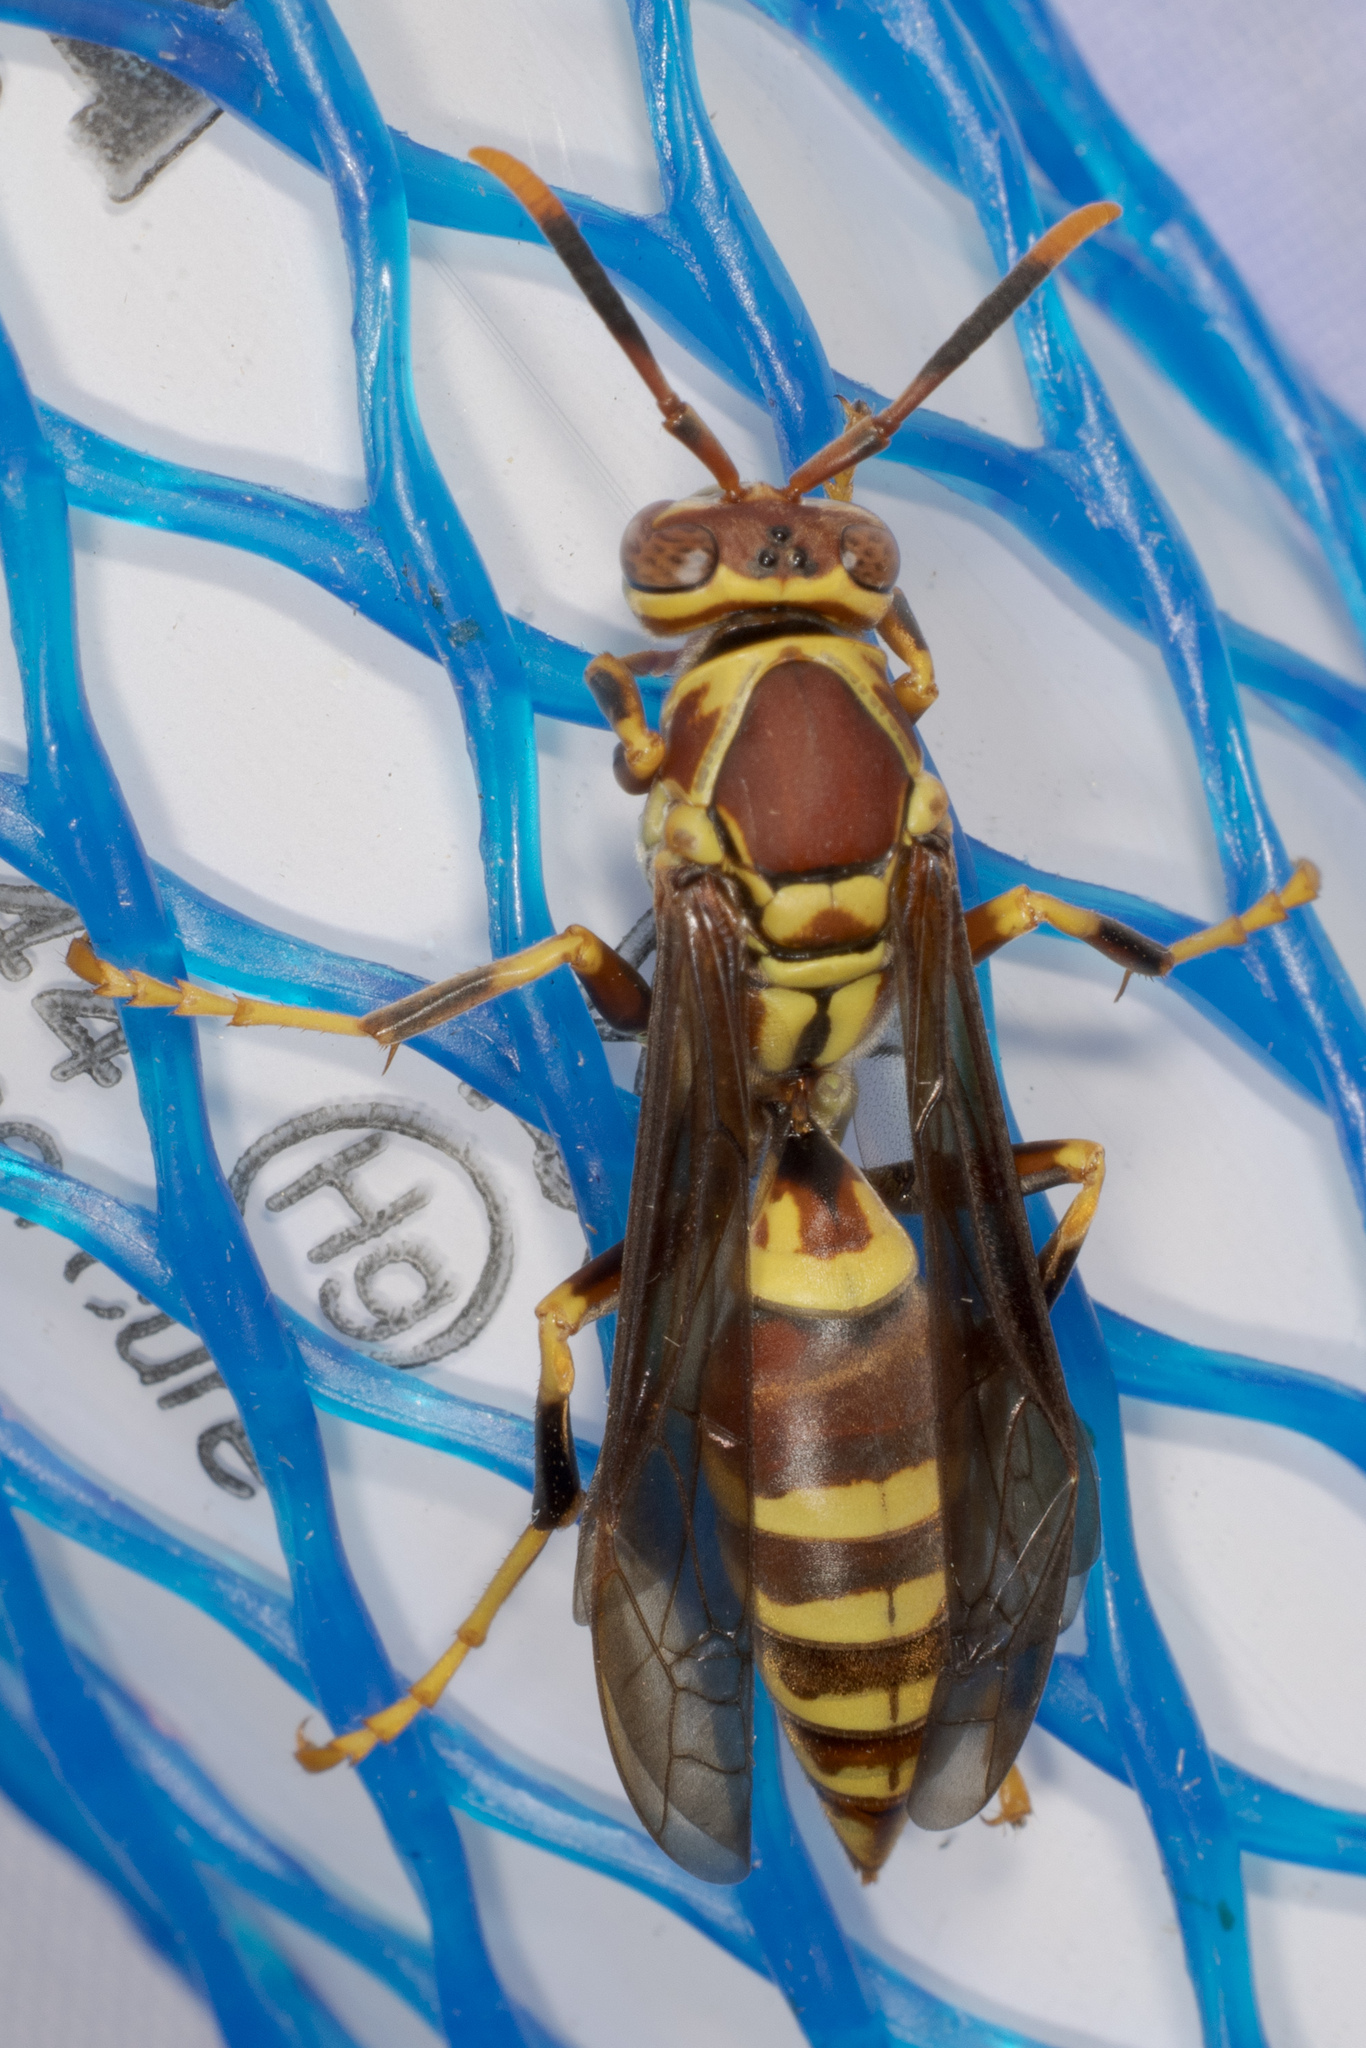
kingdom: Animalia
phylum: Arthropoda
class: Insecta
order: Hymenoptera
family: Eumenidae
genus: Polistes
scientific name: Polistes exclamans
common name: Paper wasp
